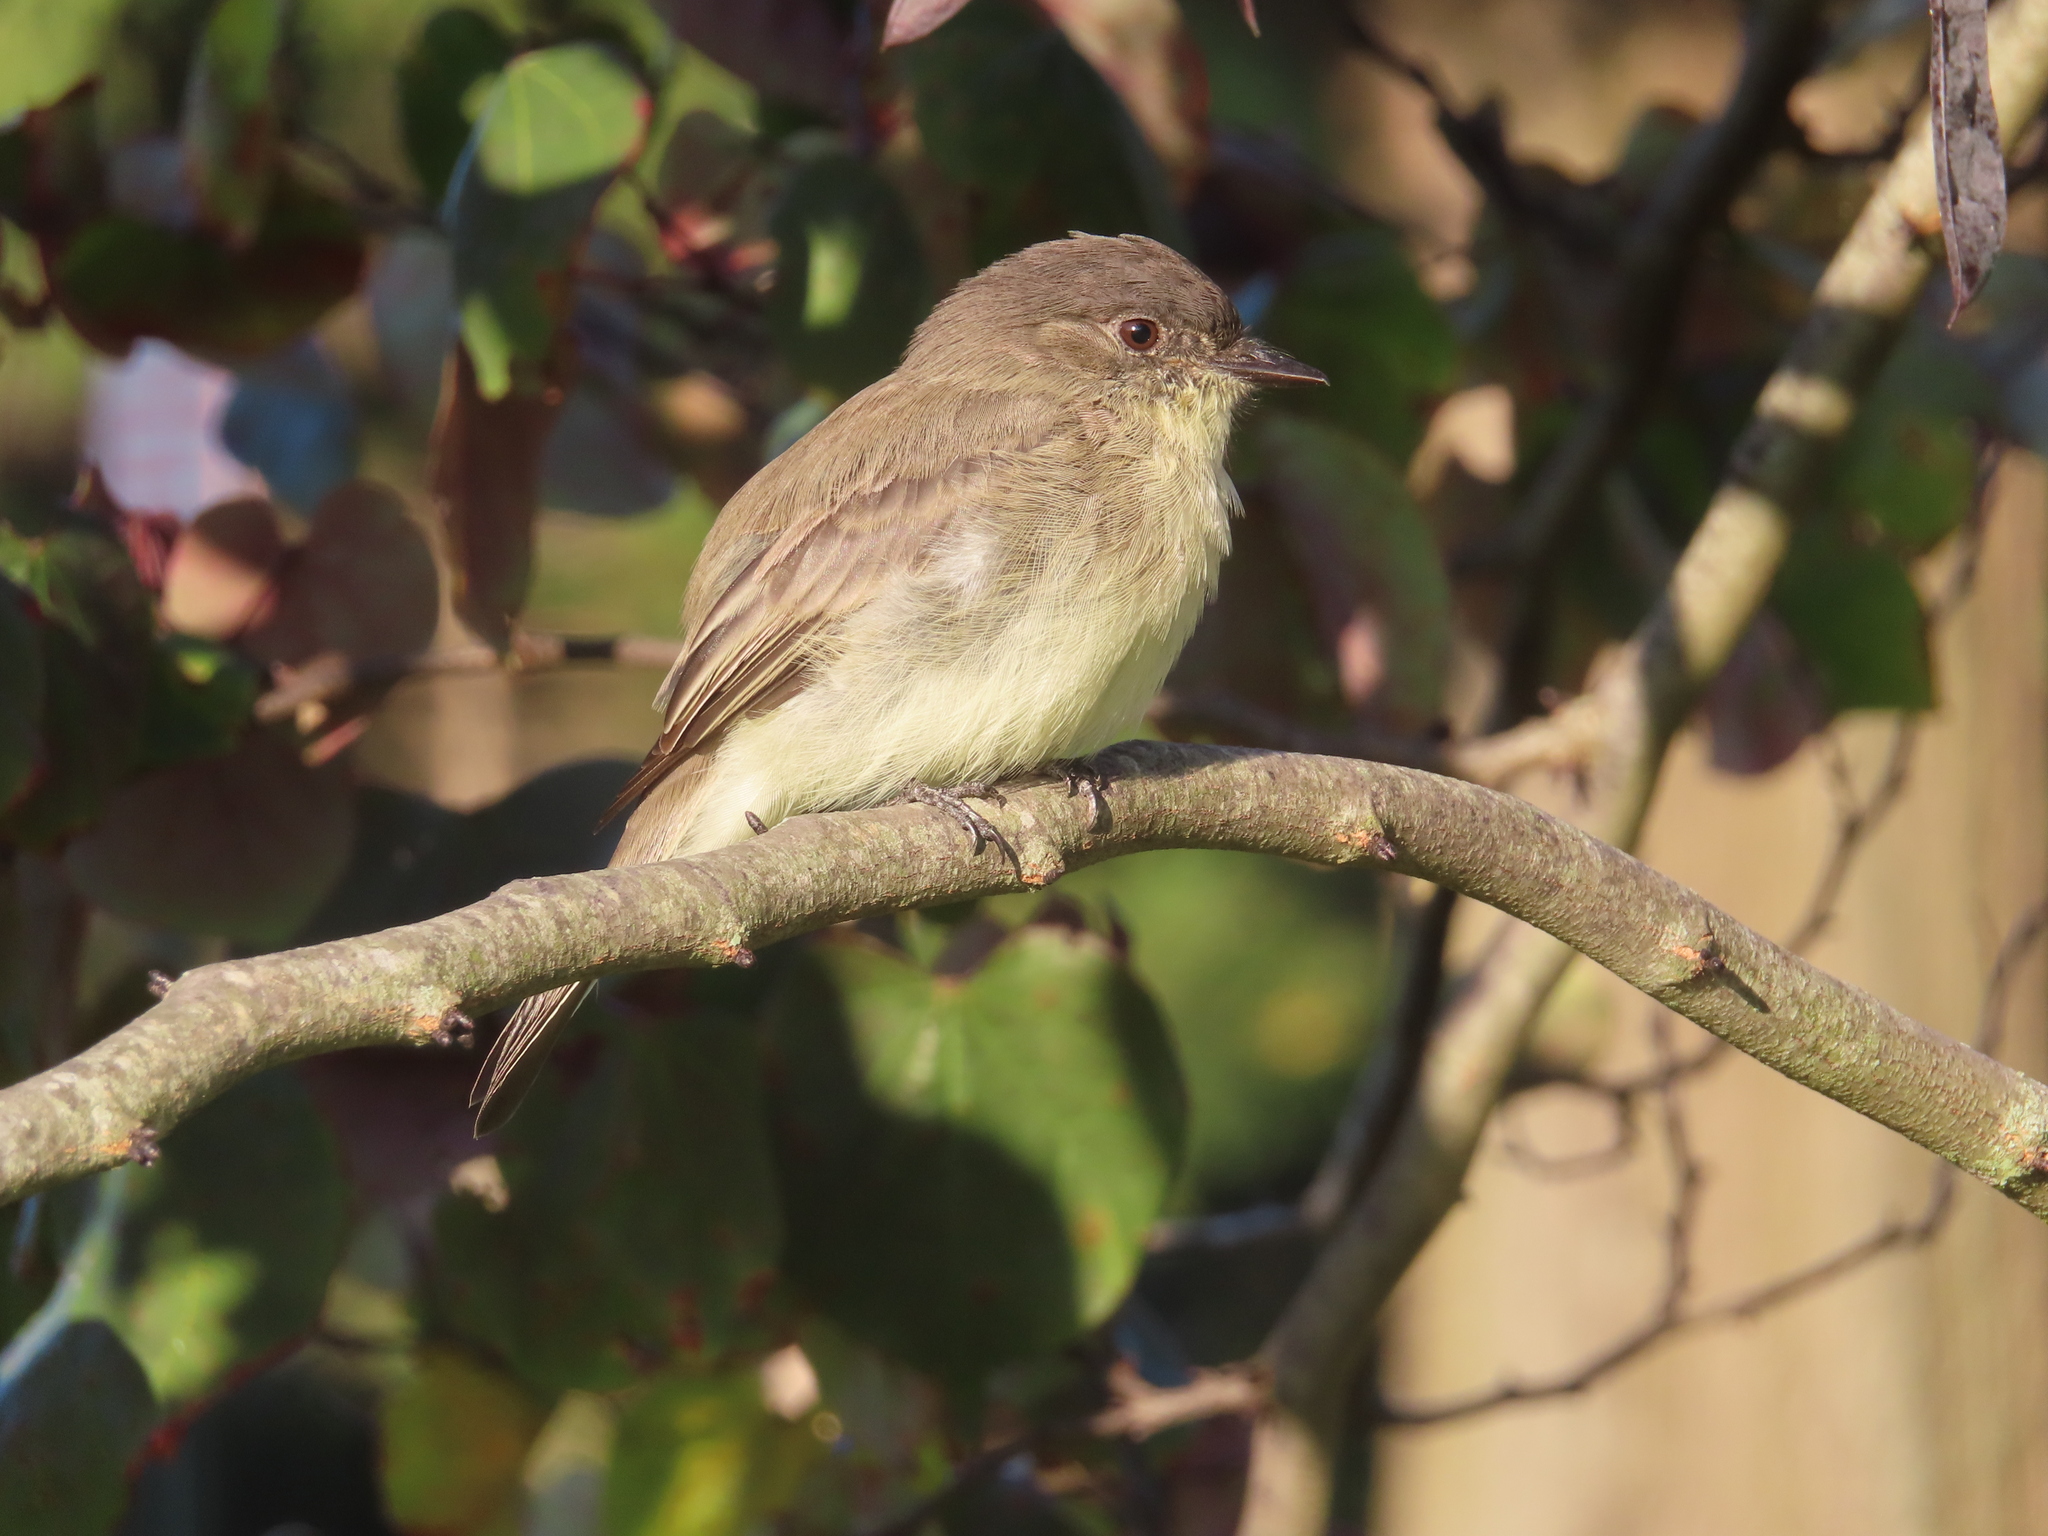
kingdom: Animalia
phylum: Chordata
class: Aves
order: Passeriformes
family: Tyrannidae
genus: Sayornis
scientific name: Sayornis phoebe
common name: Eastern phoebe
